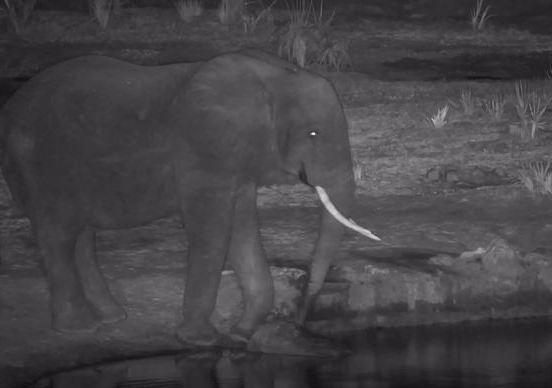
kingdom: Animalia
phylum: Chordata
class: Mammalia
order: Proboscidea
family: Elephantidae
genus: Loxodonta
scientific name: Loxodonta africana
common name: African elephant
